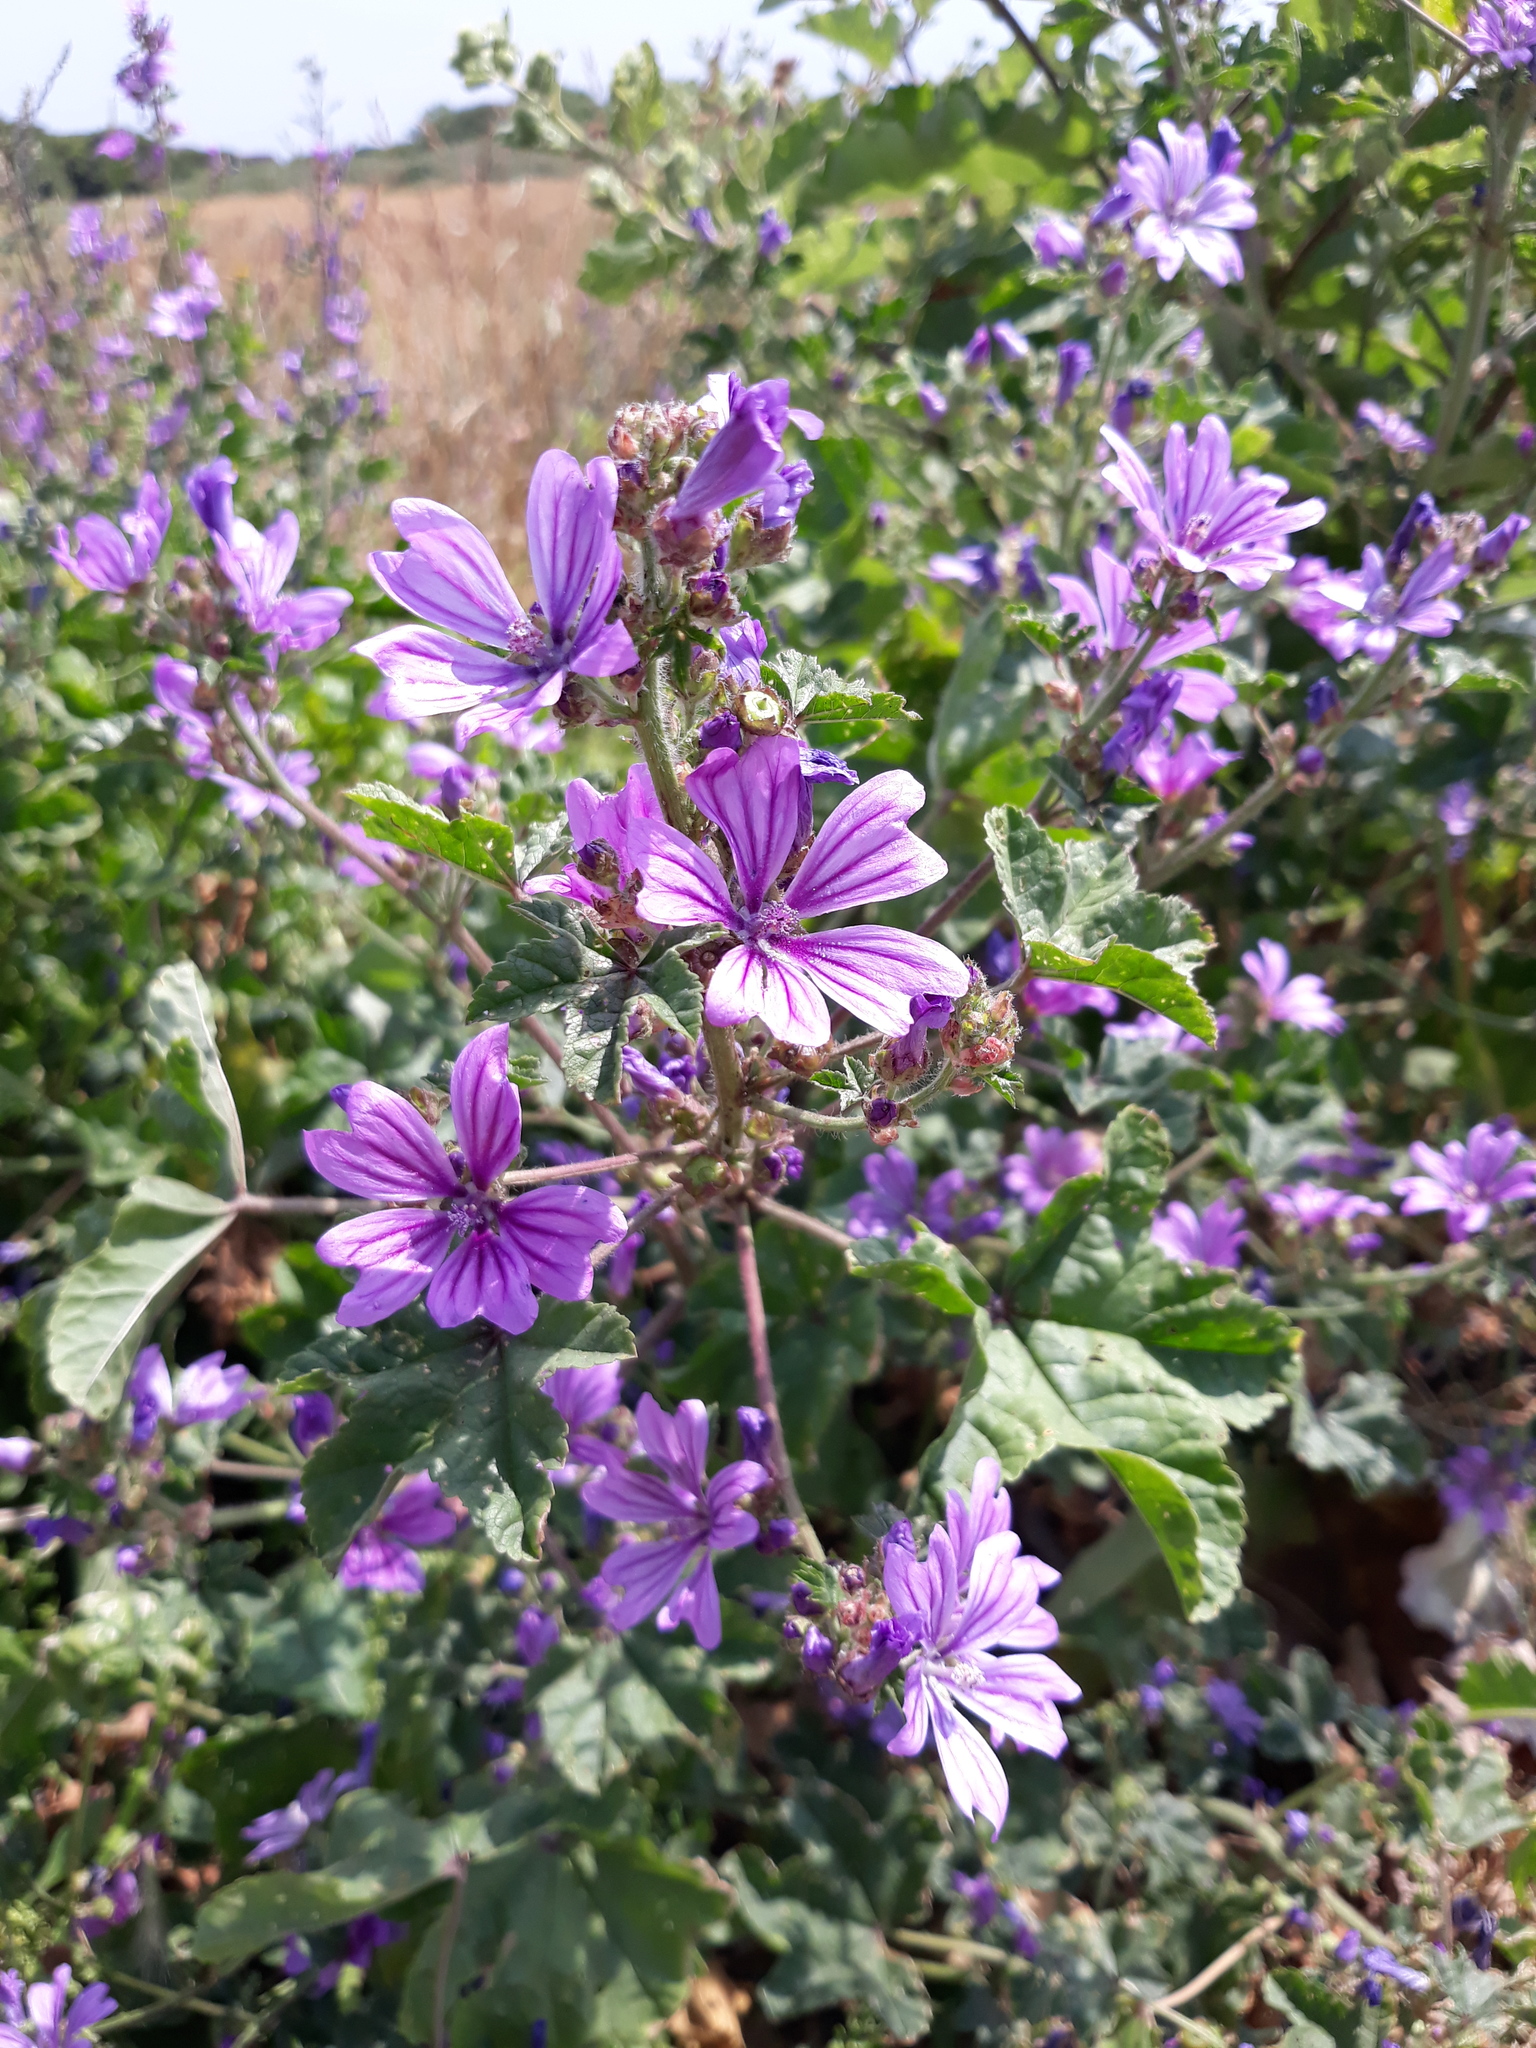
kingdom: Plantae
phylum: Tracheophyta
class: Magnoliopsida
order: Malvales
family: Malvaceae
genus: Malva
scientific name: Malva sylvestris
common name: Common mallow
